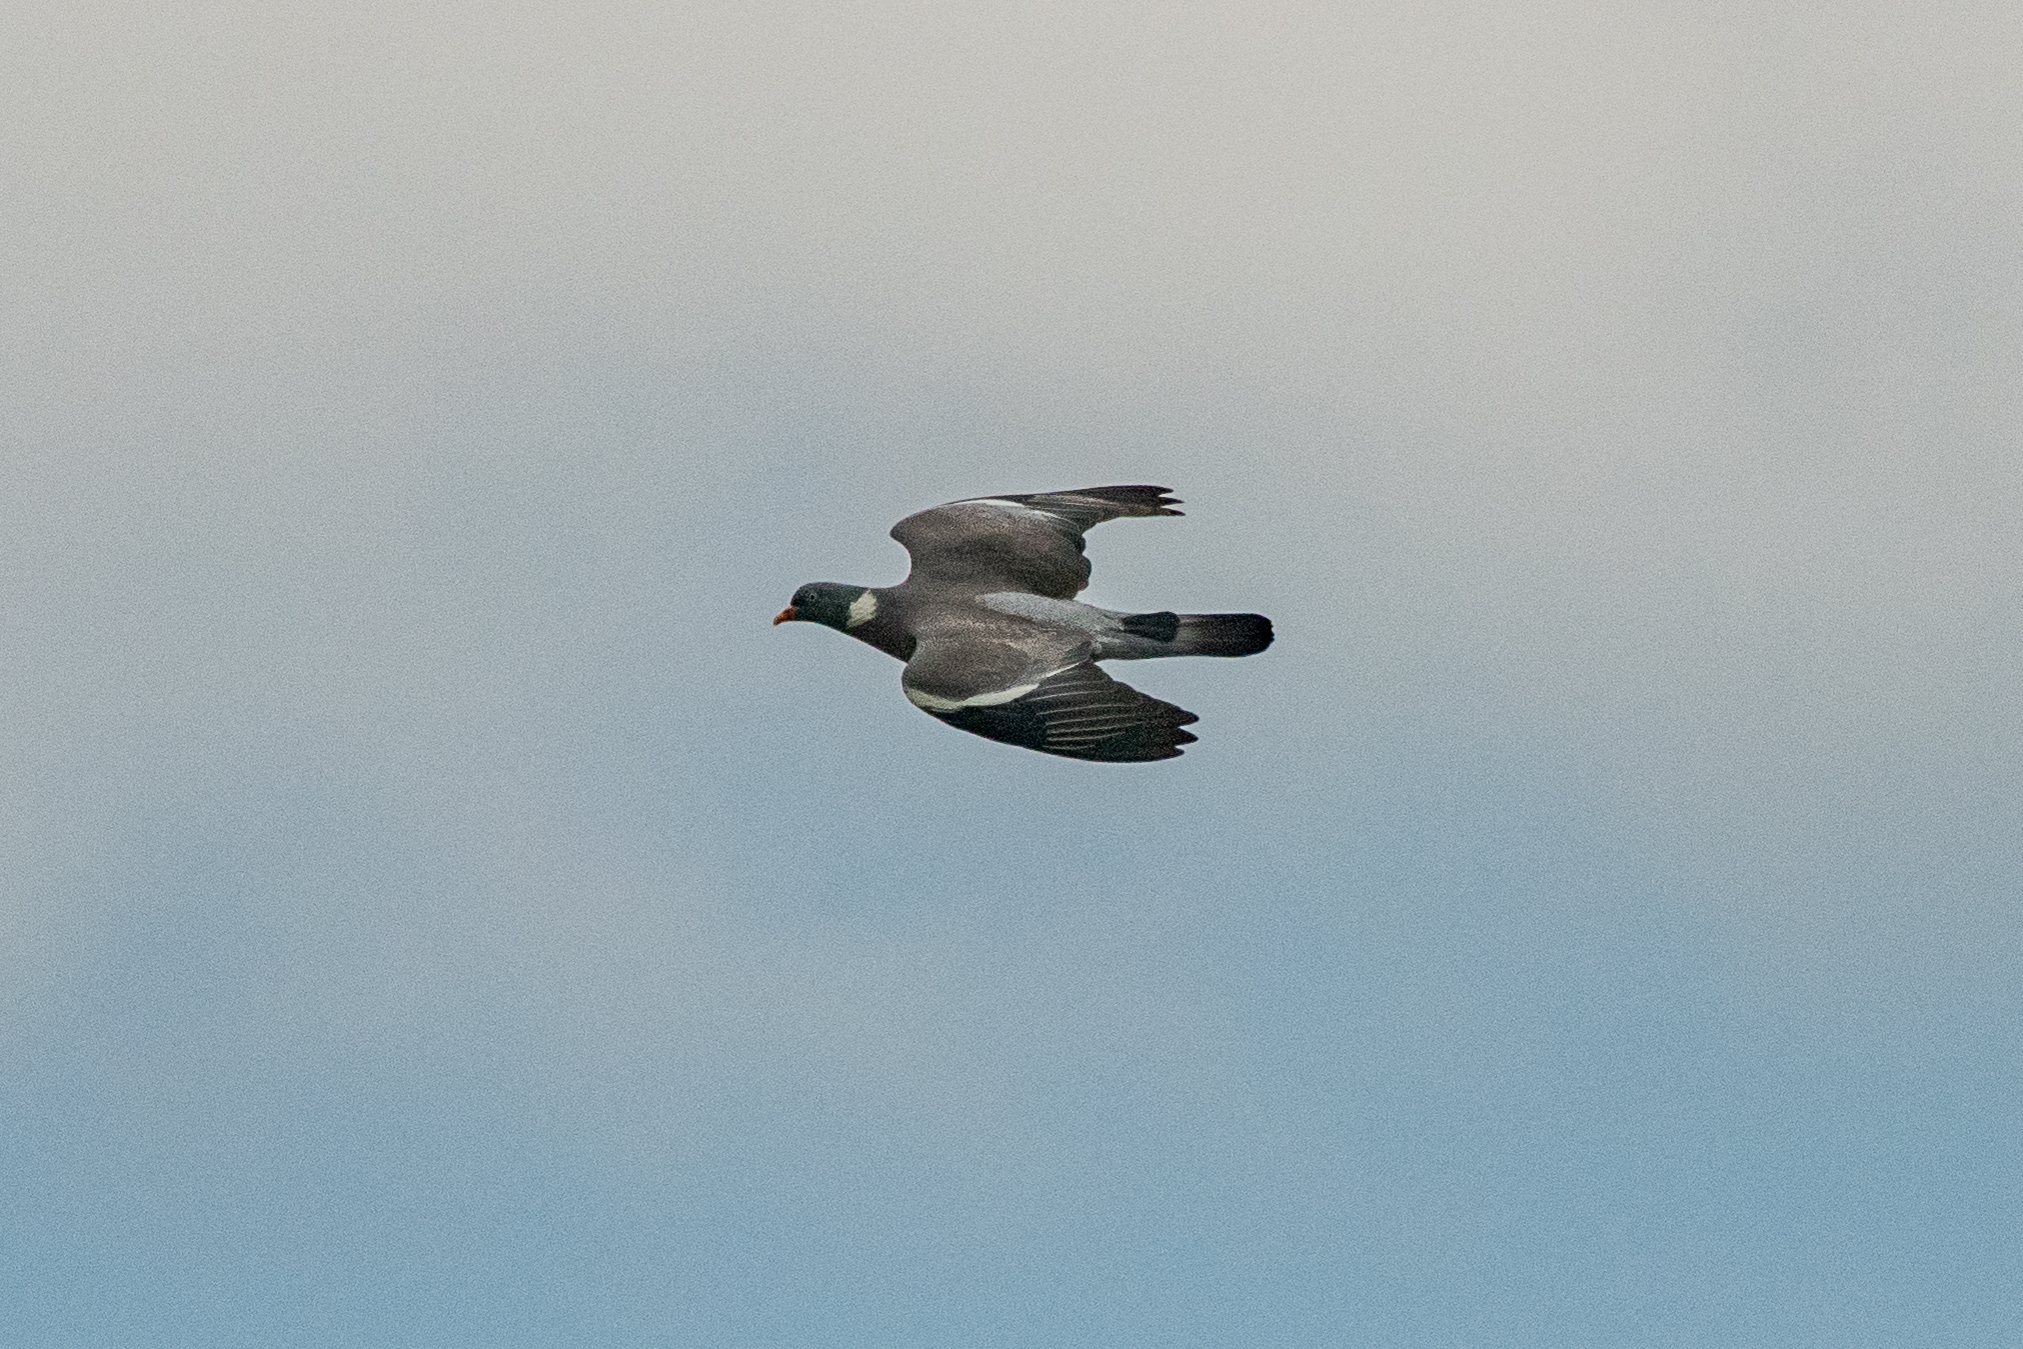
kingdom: Animalia
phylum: Chordata
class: Aves
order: Columbiformes
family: Columbidae
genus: Columba
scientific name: Columba palumbus
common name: Common wood pigeon
